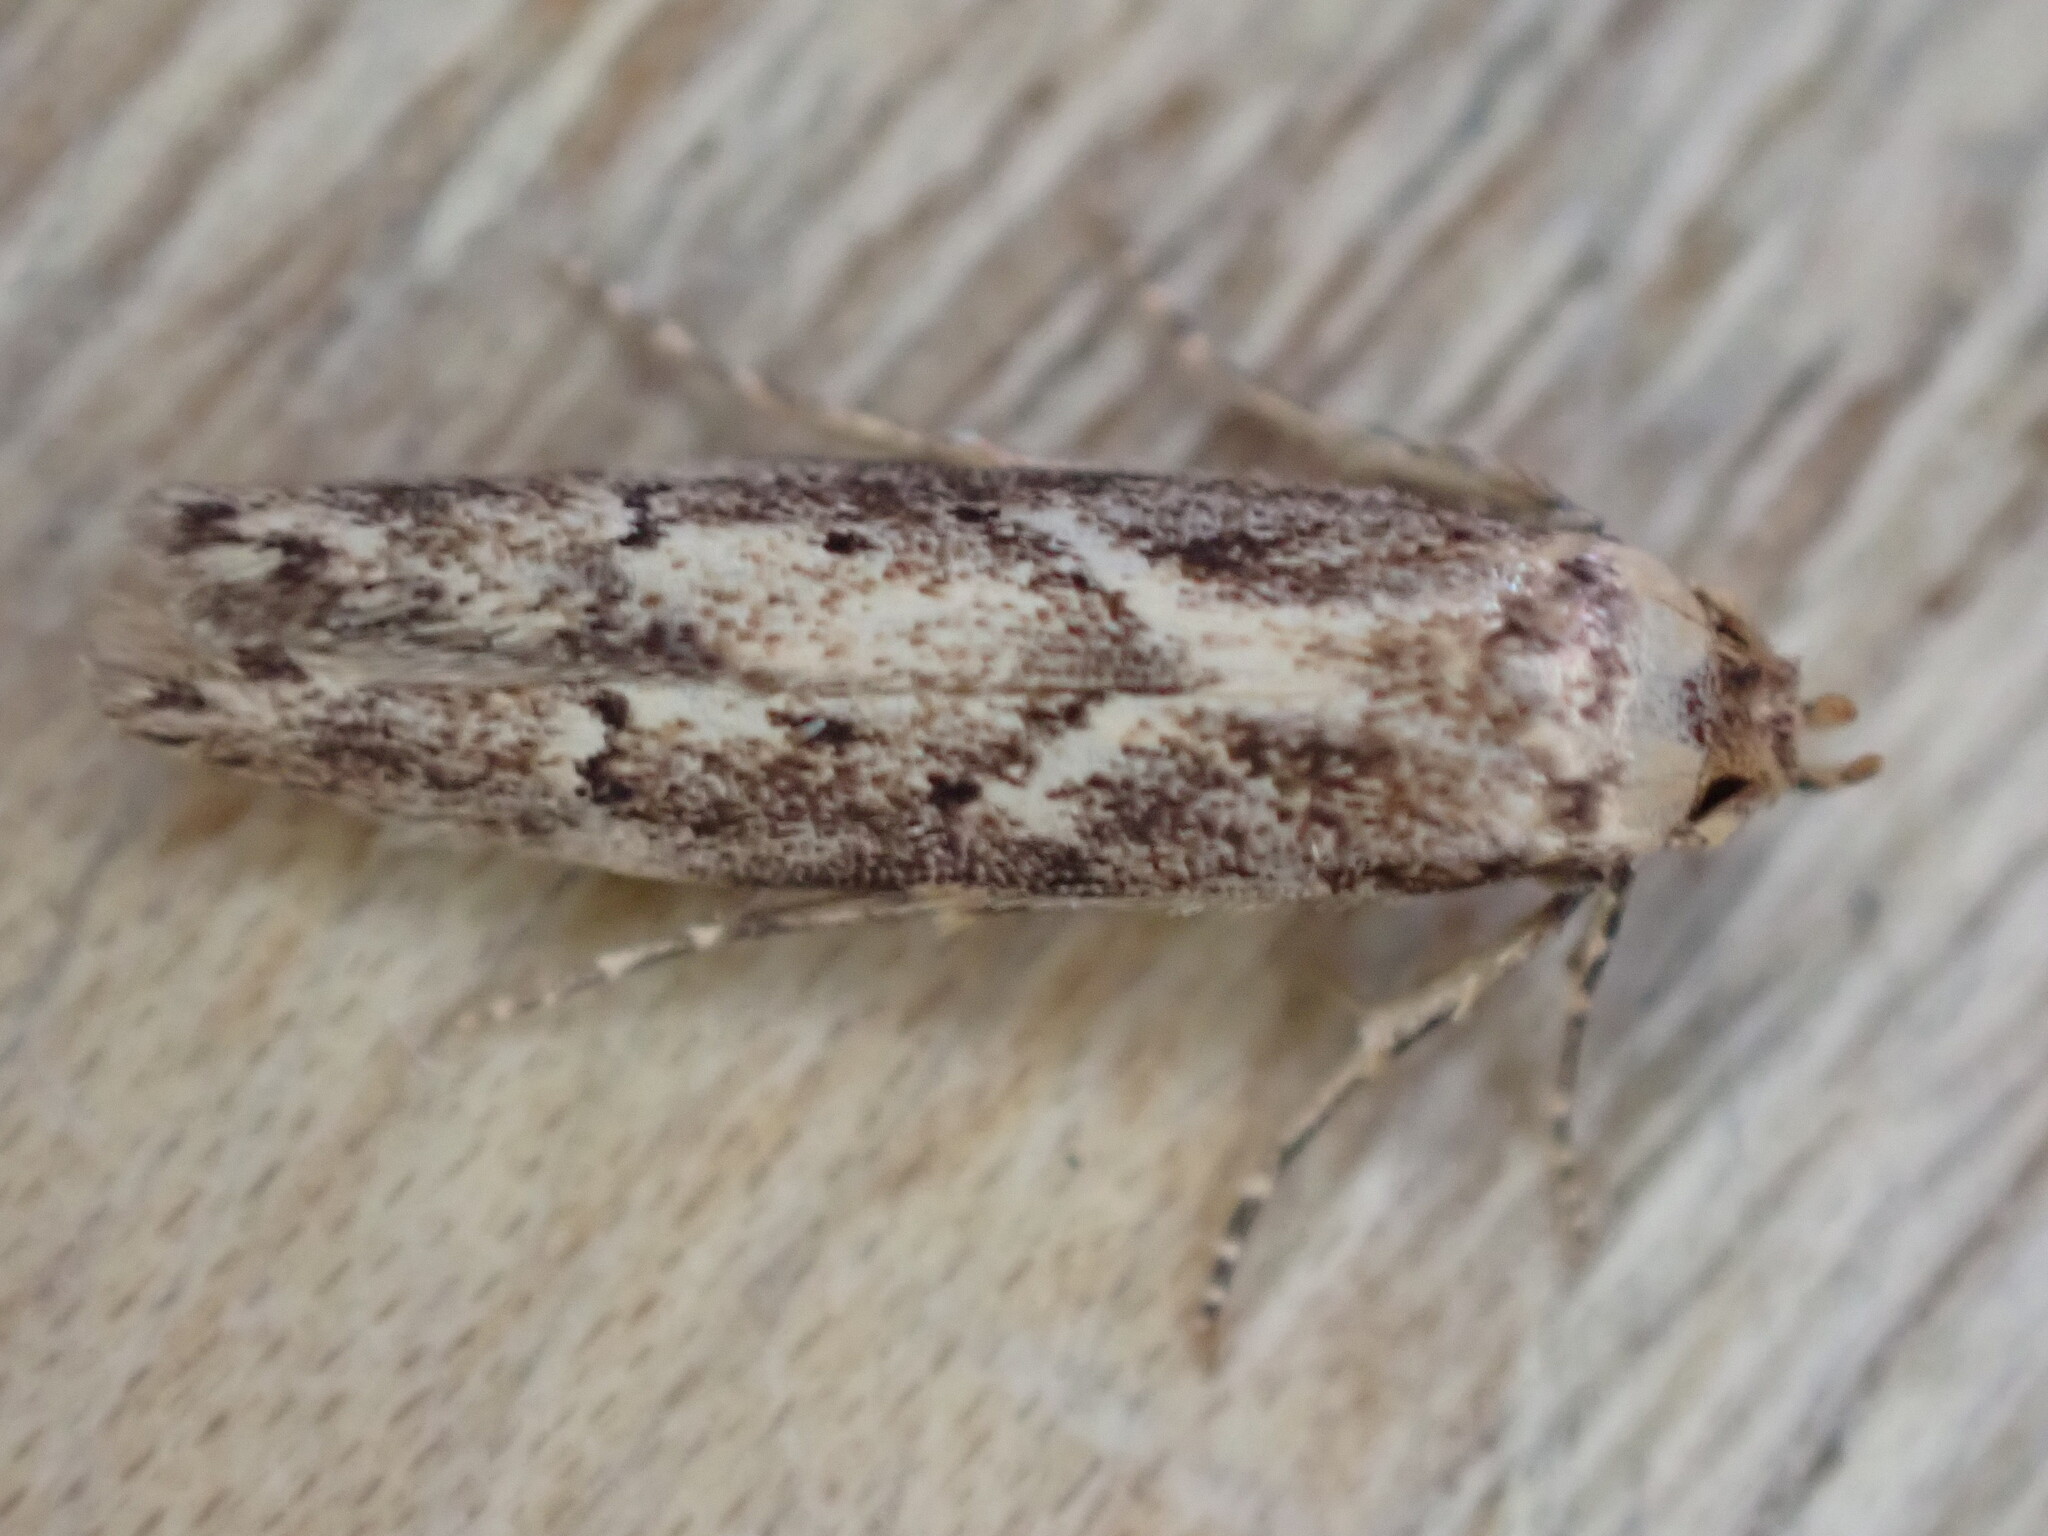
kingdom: Animalia
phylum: Arthropoda
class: Insecta
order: Lepidoptera
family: Blastobasidae
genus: Blastobasis
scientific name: Blastobasis adustella
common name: Dingy dowd
